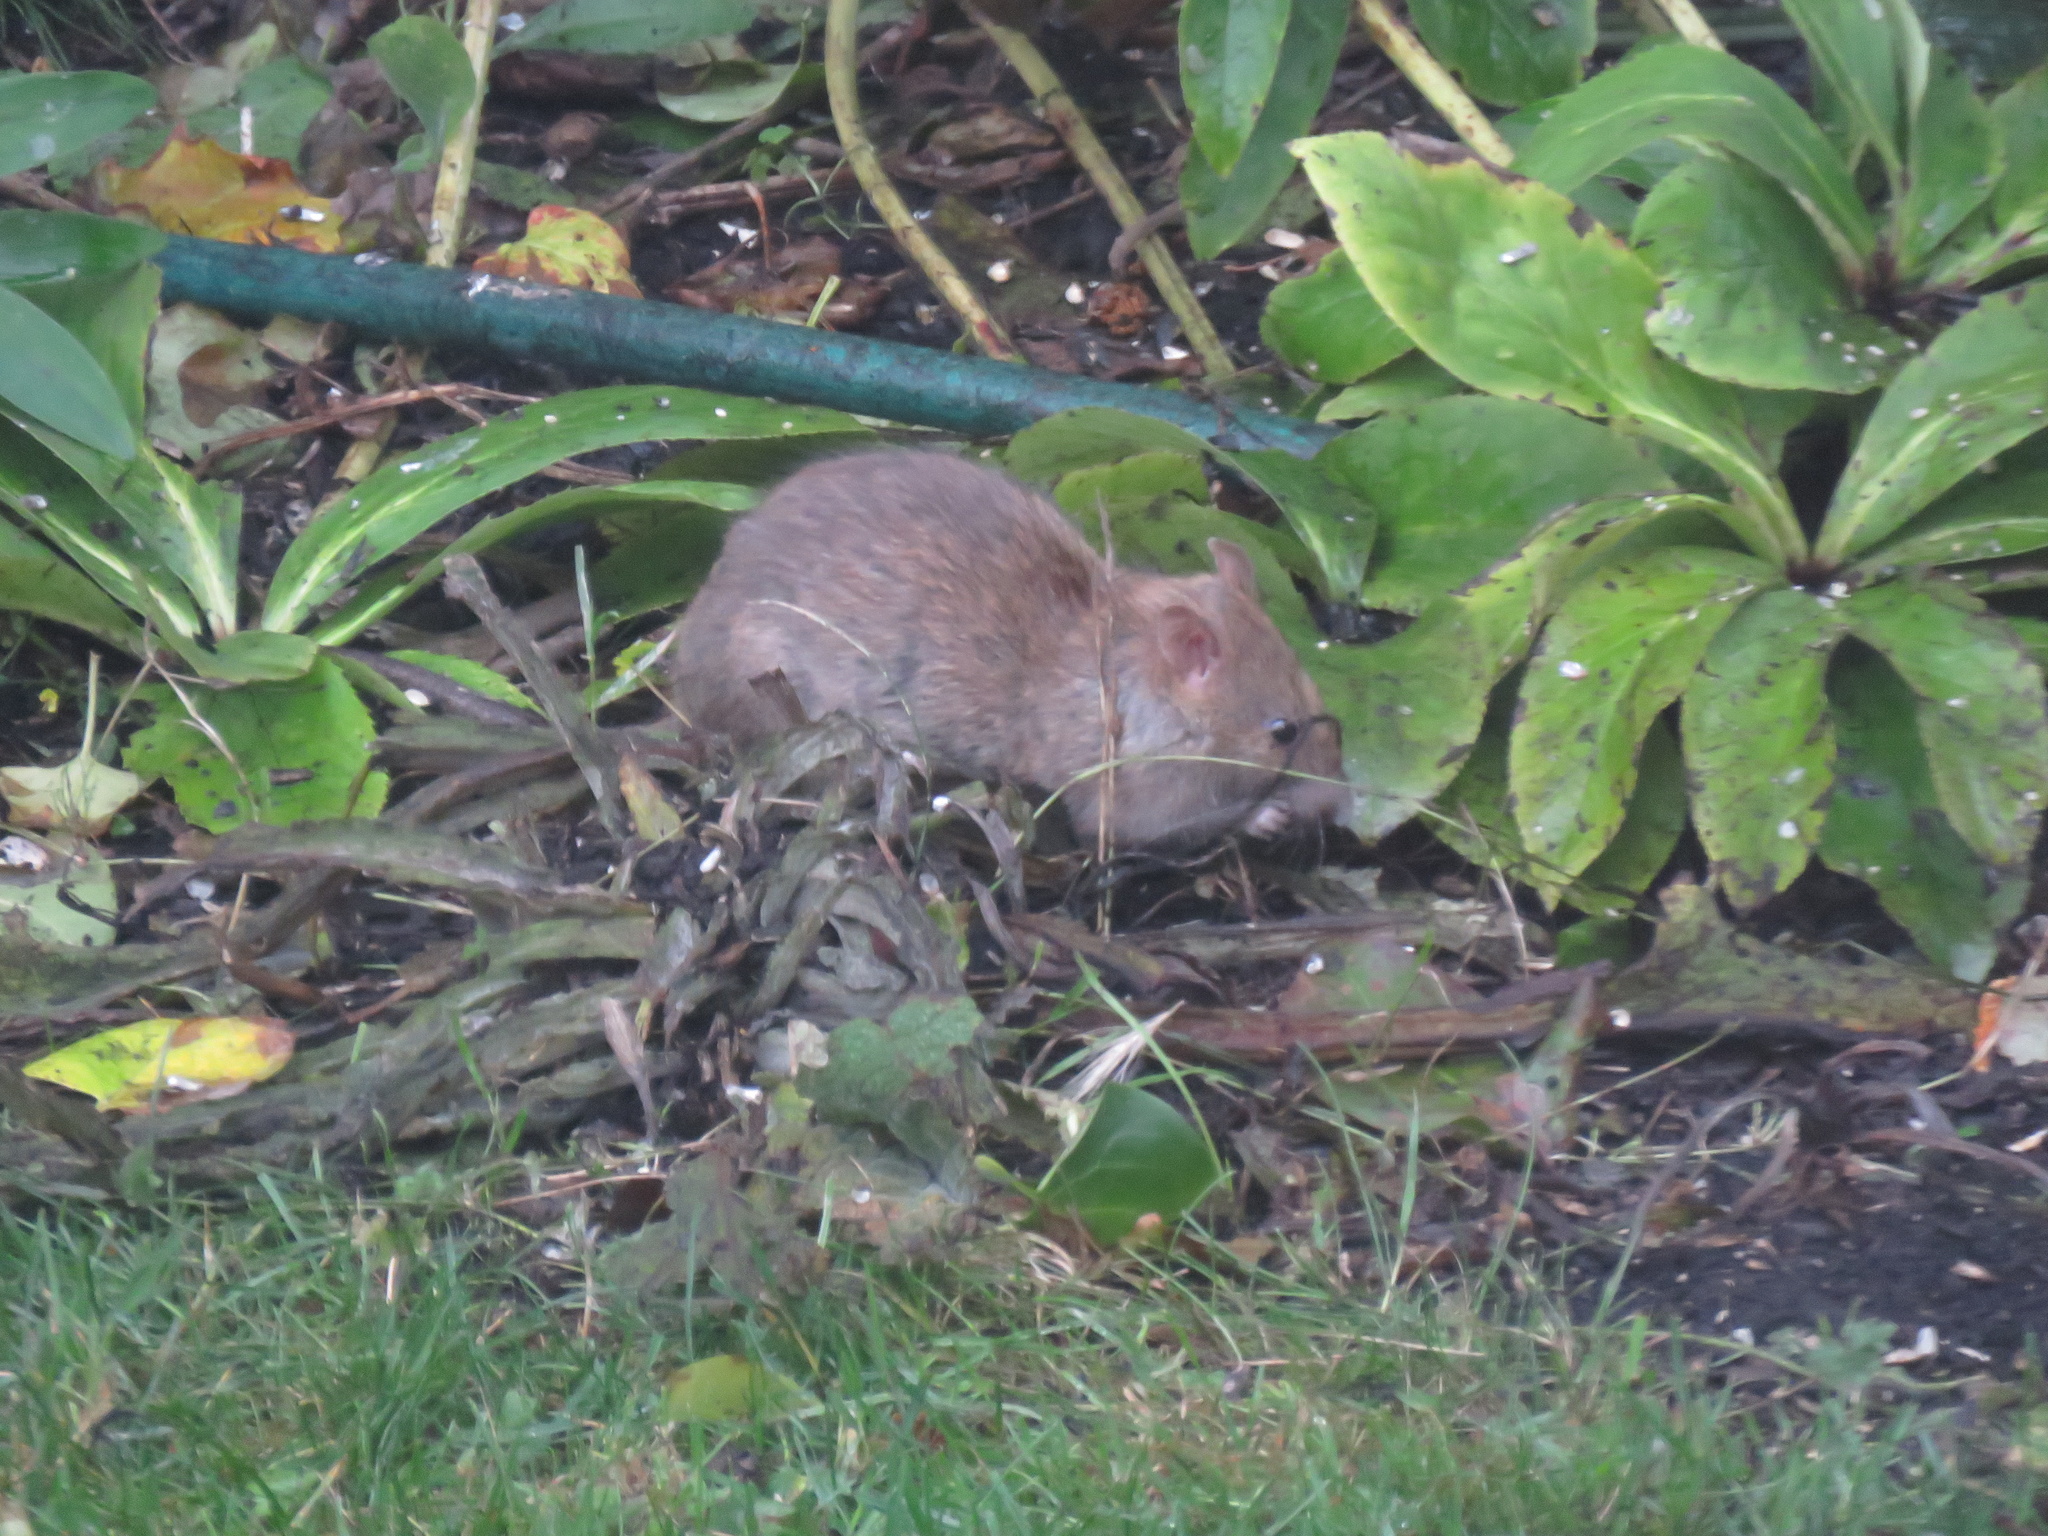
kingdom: Animalia
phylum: Chordata
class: Mammalia
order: Rodentia
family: Muridae
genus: Rattus
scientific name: Rattus norvegicus
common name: Brown rat
